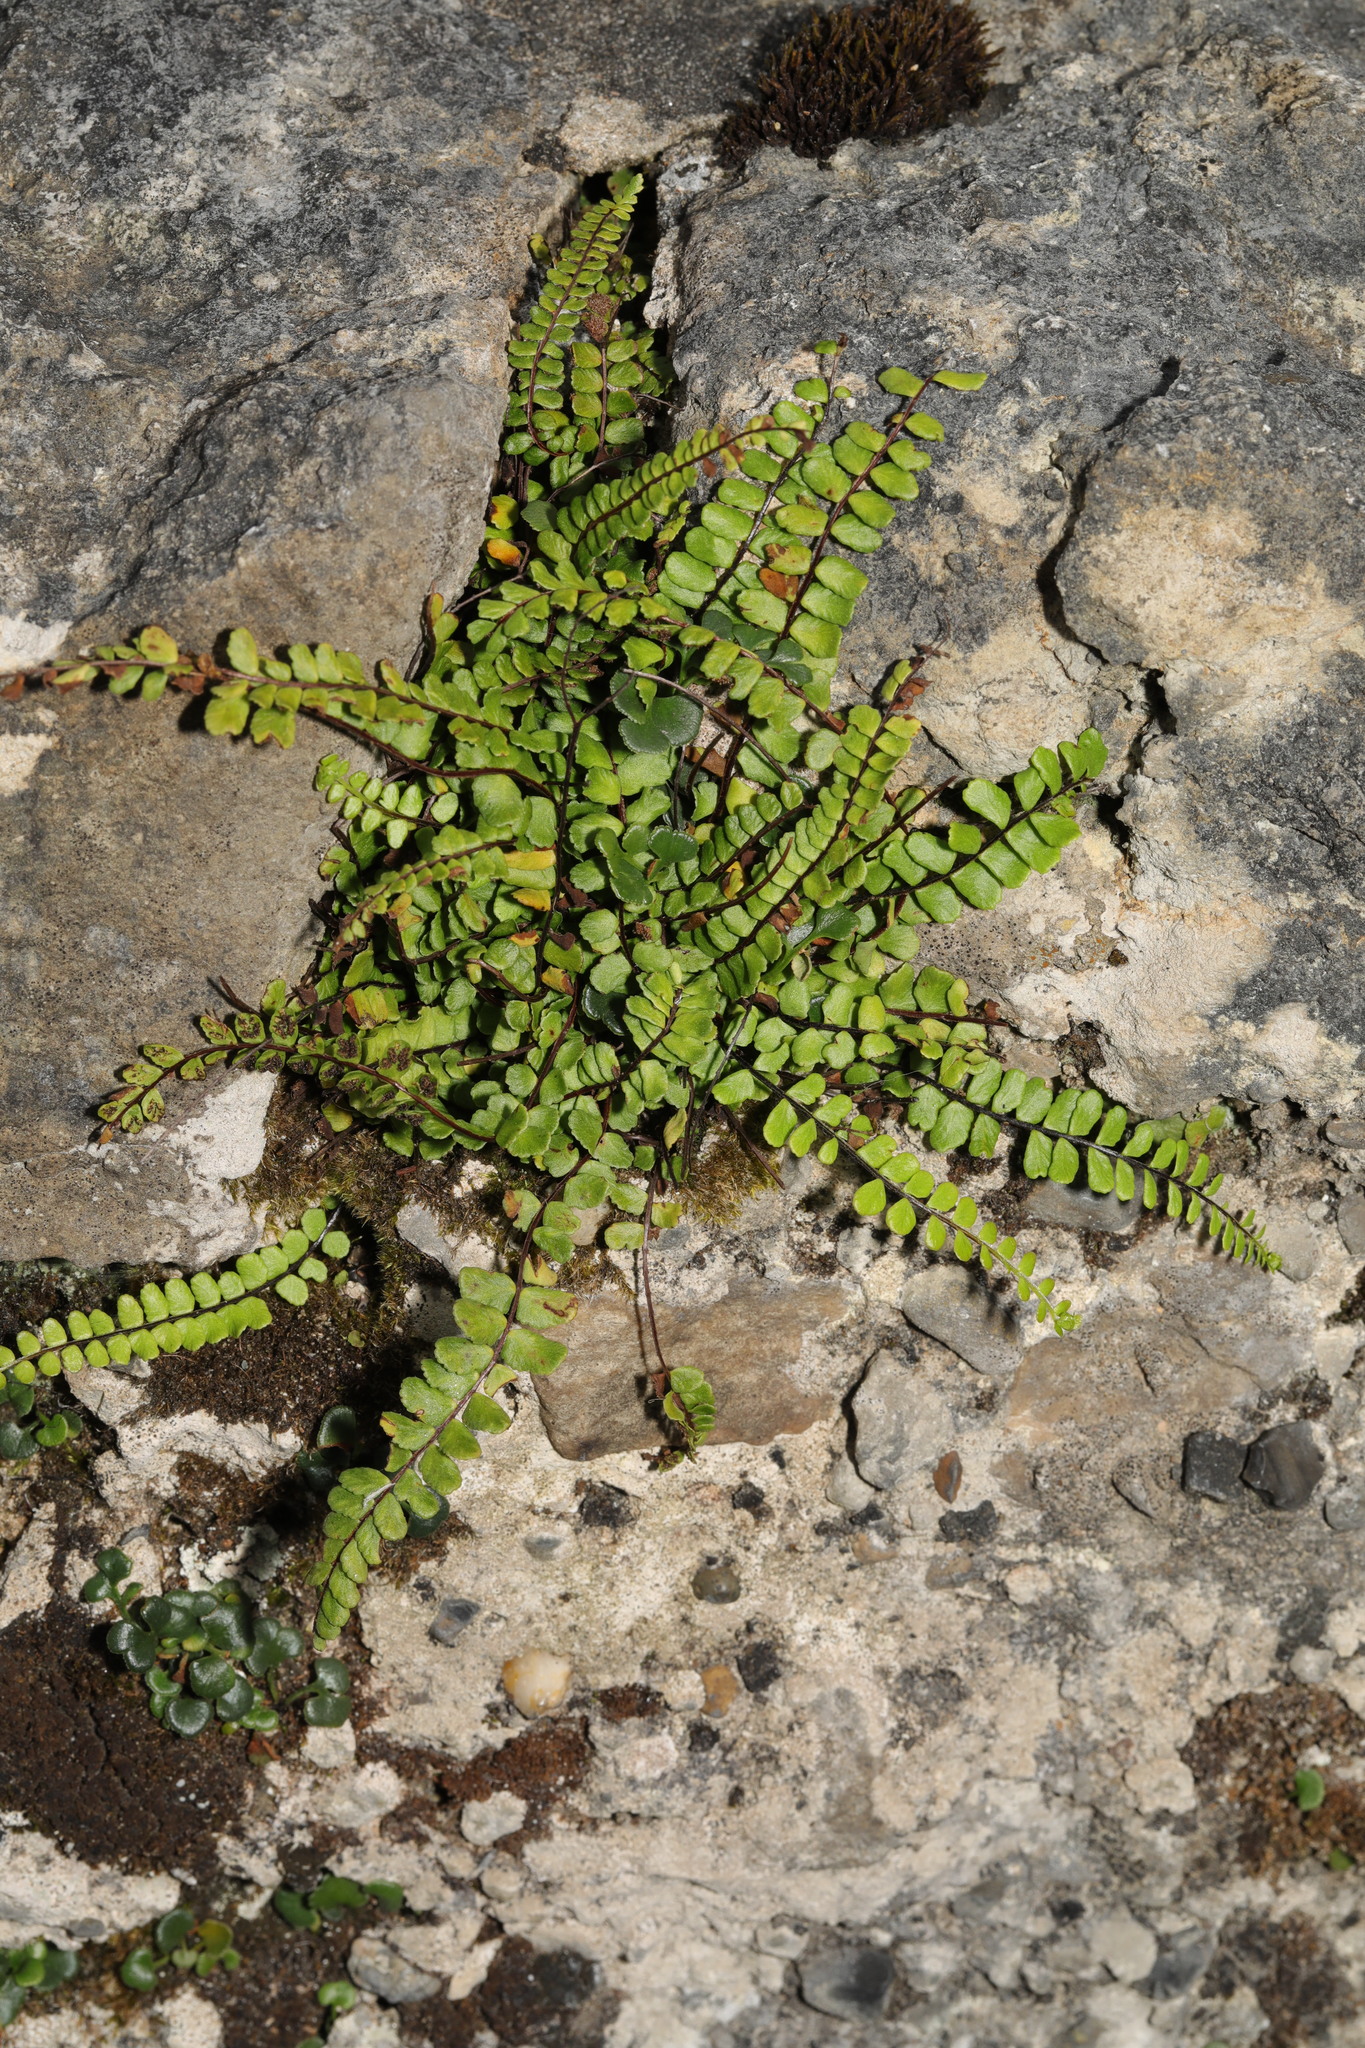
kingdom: Plantae
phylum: Tracheophyta
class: Polypodiopsida
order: Polypodiales
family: Aspleniaceae
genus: Asplenium
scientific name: Asplenium trichomanes
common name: Maidenhair spleenwort
